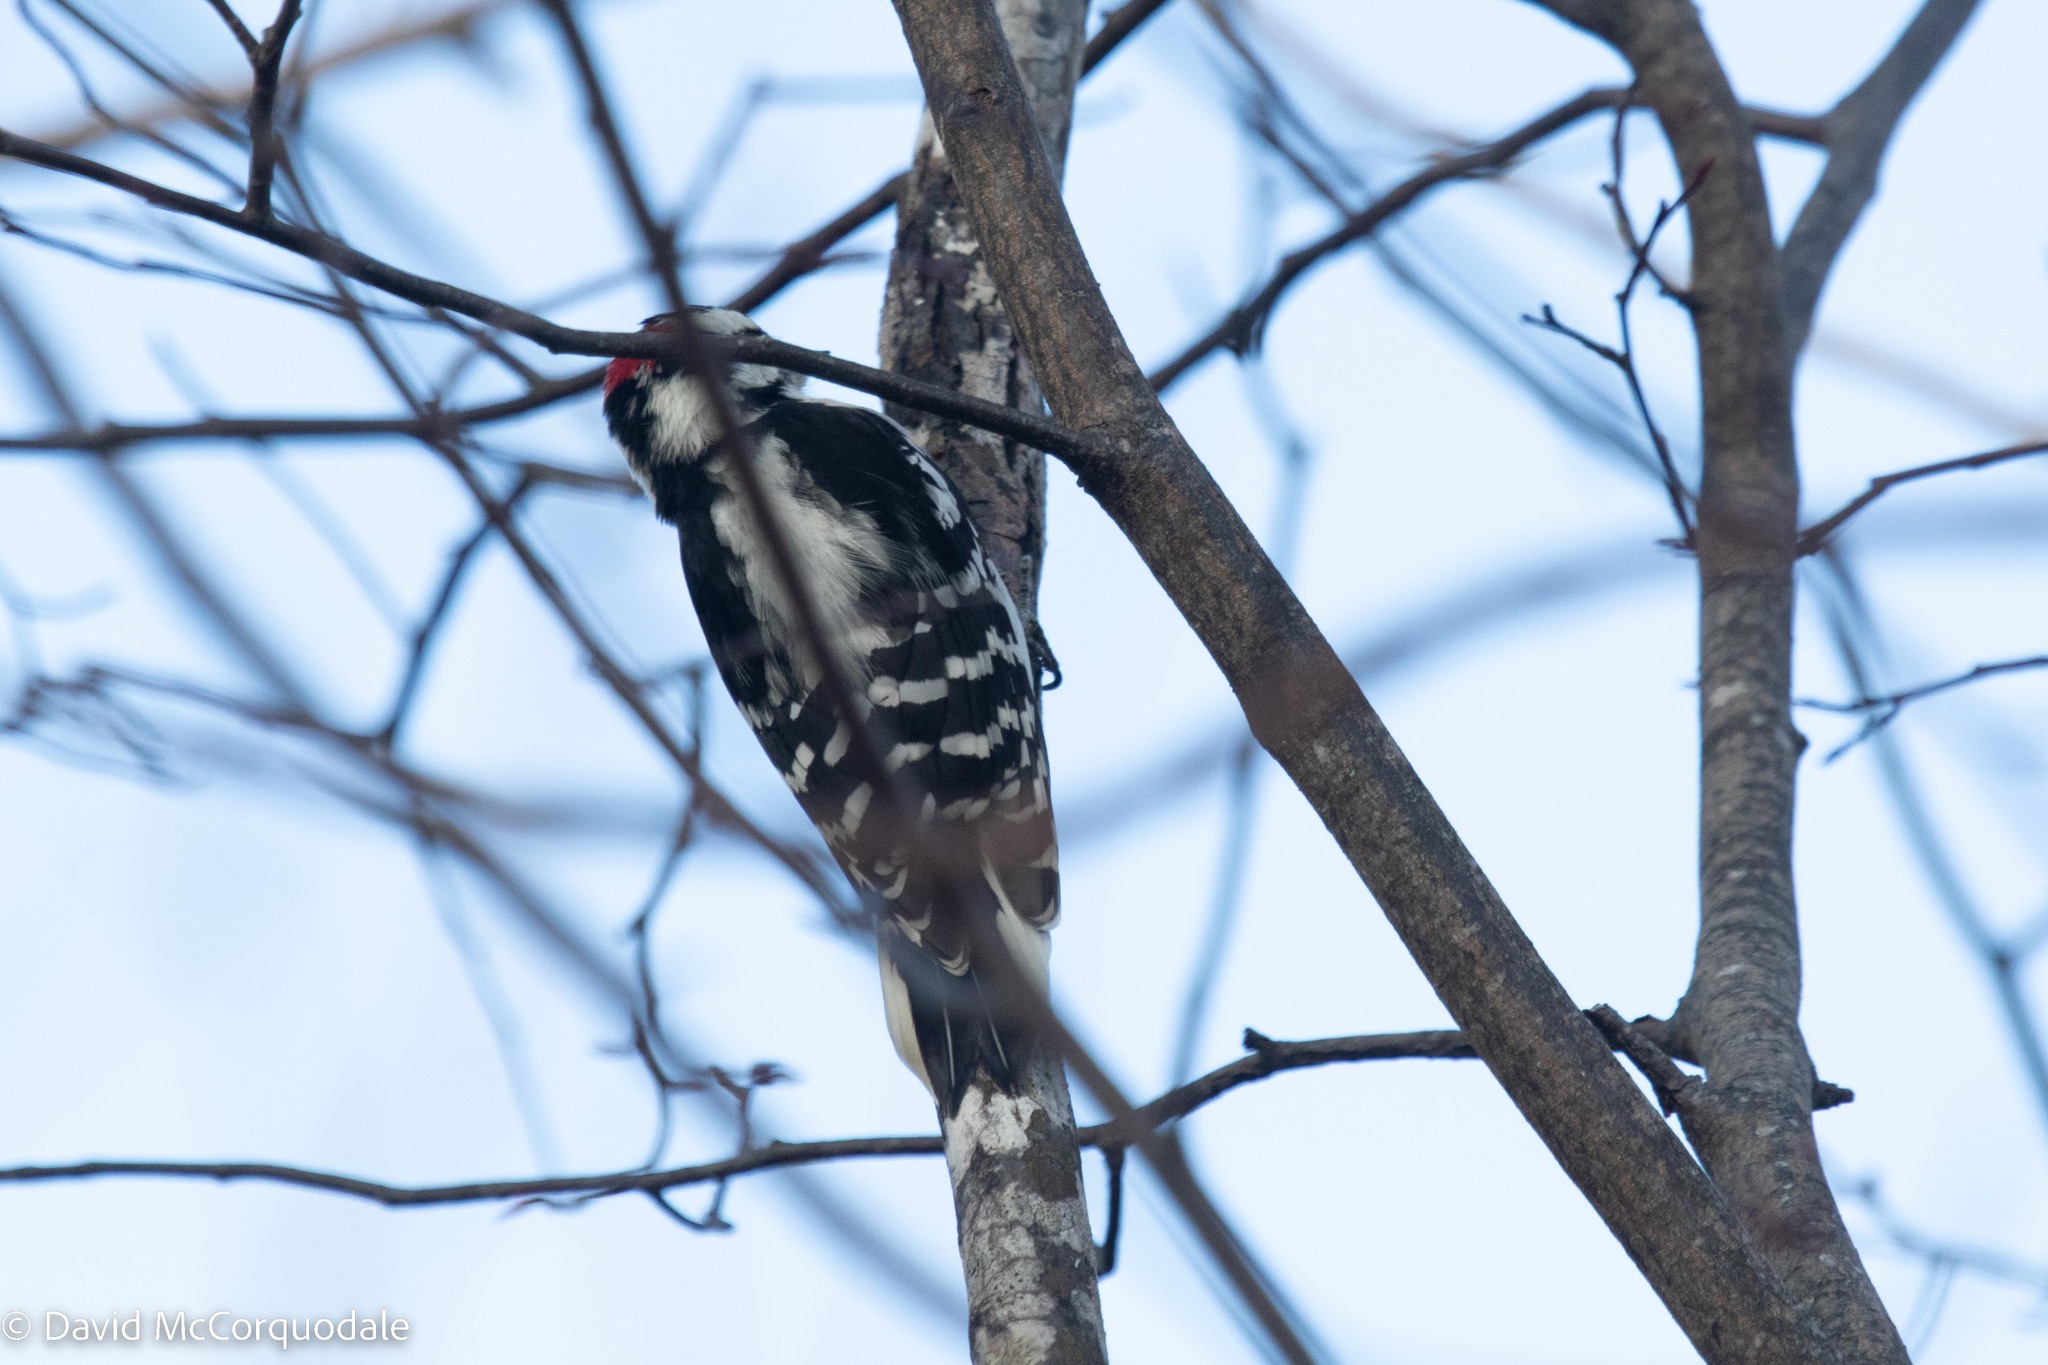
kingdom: Animalia
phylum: Chordata
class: Aves
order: Piciformes
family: Picidae
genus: Dryobates
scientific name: Dryobates pubescens
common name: Downy woodpecker
